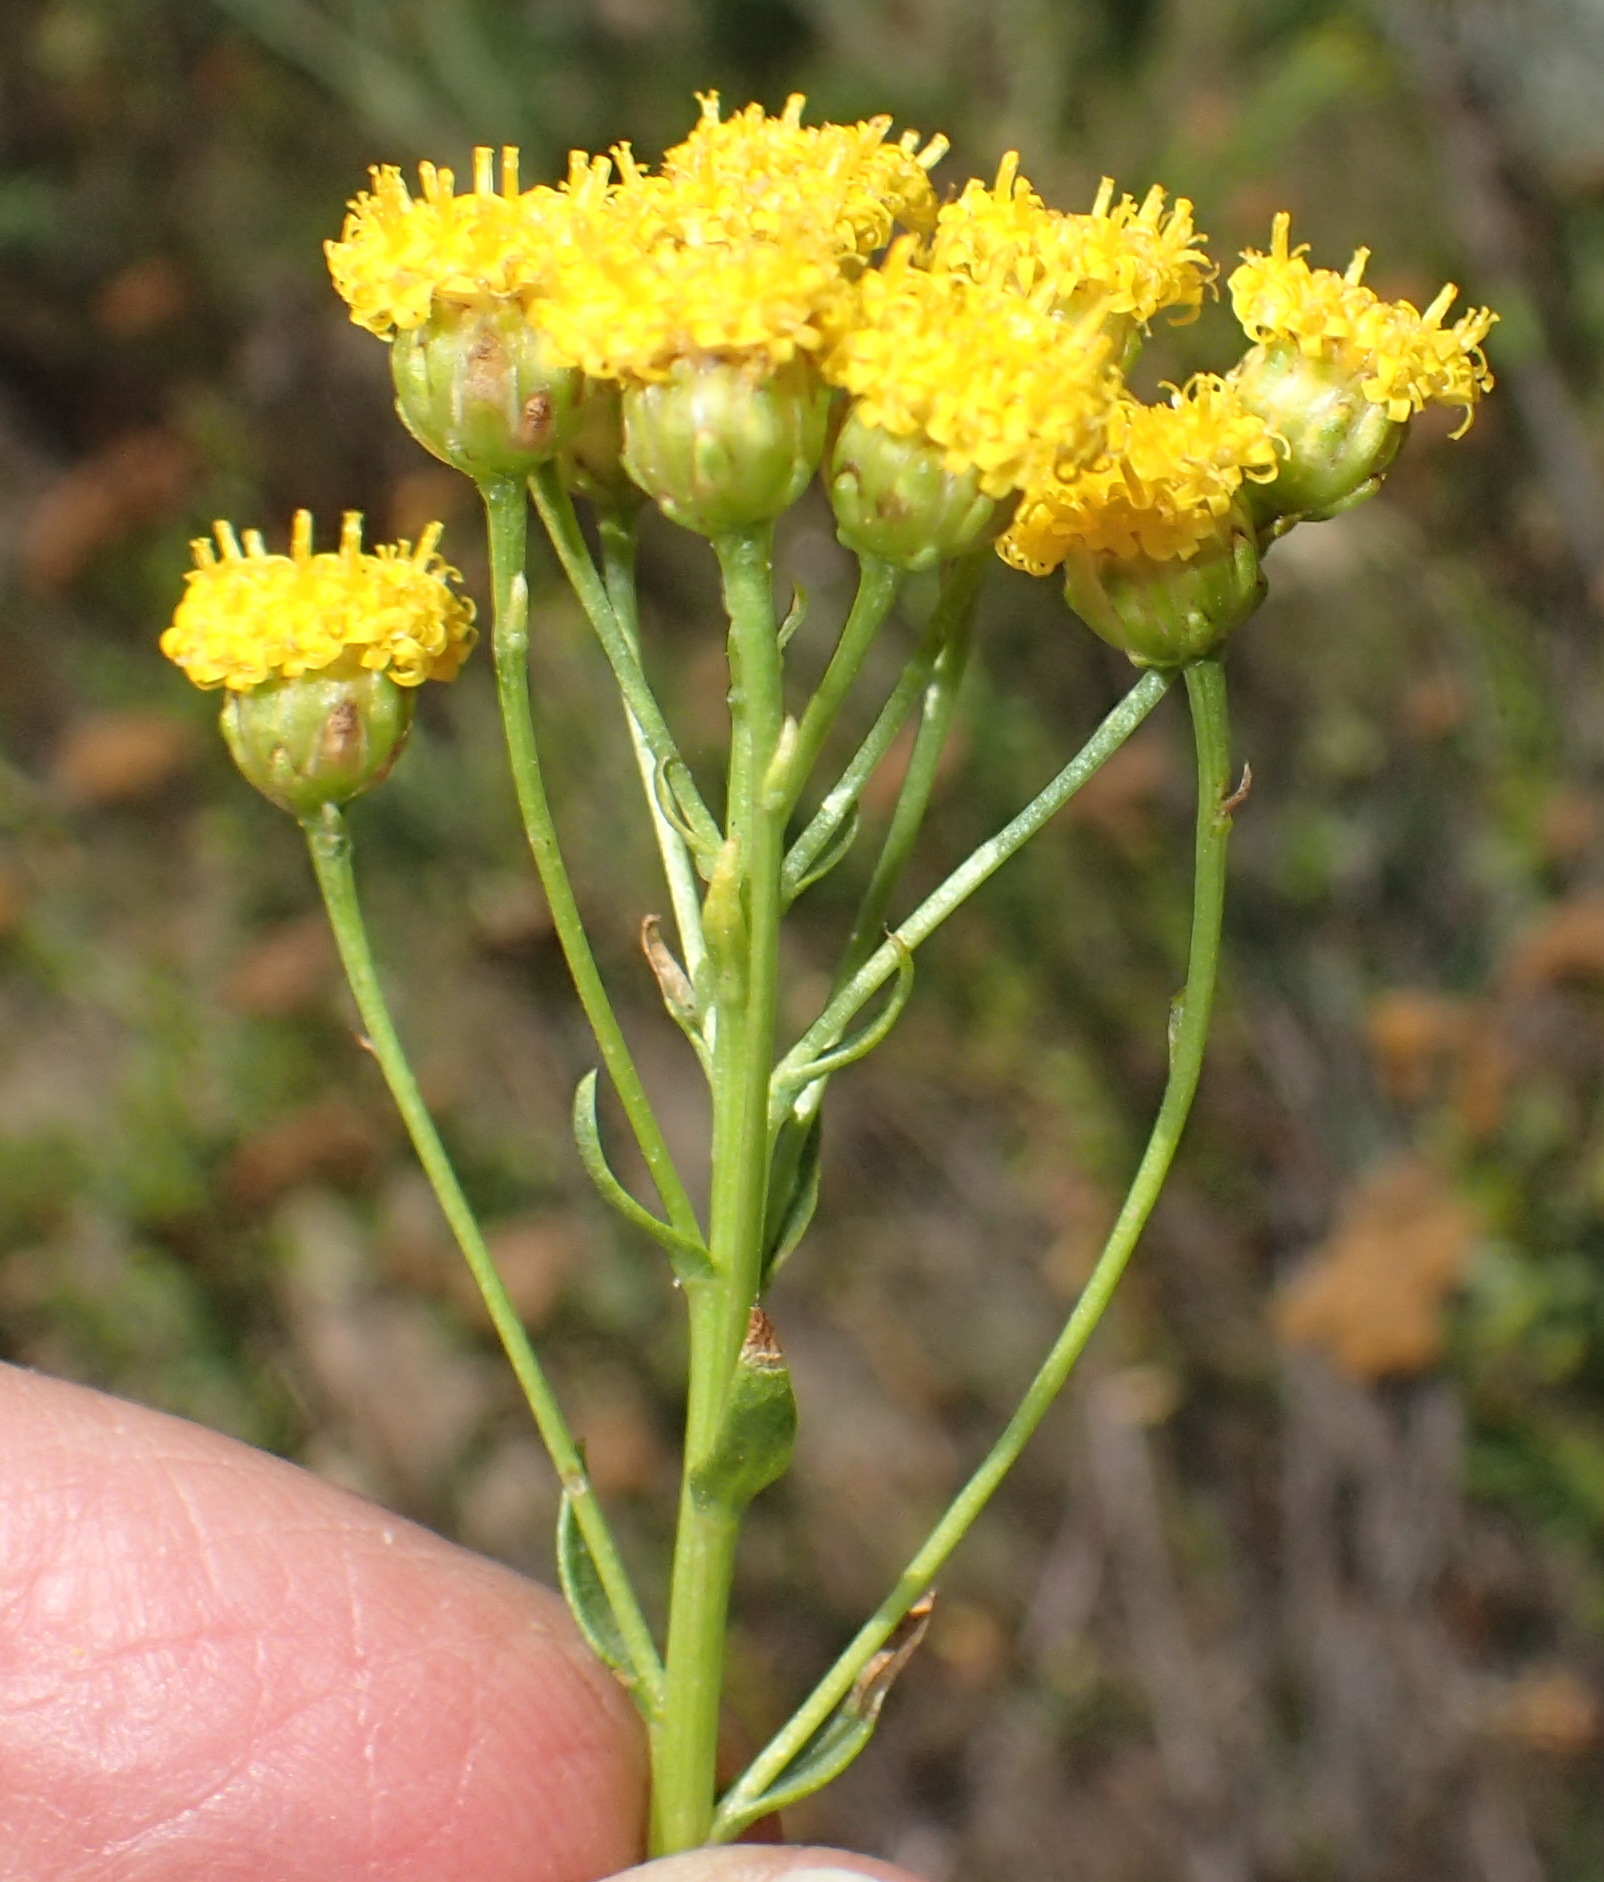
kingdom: Plantae
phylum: Tracheophyta
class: Magnoliopsida
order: Asterales
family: Asteraceae
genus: Athanasia
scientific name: Athanasia trifurcata
